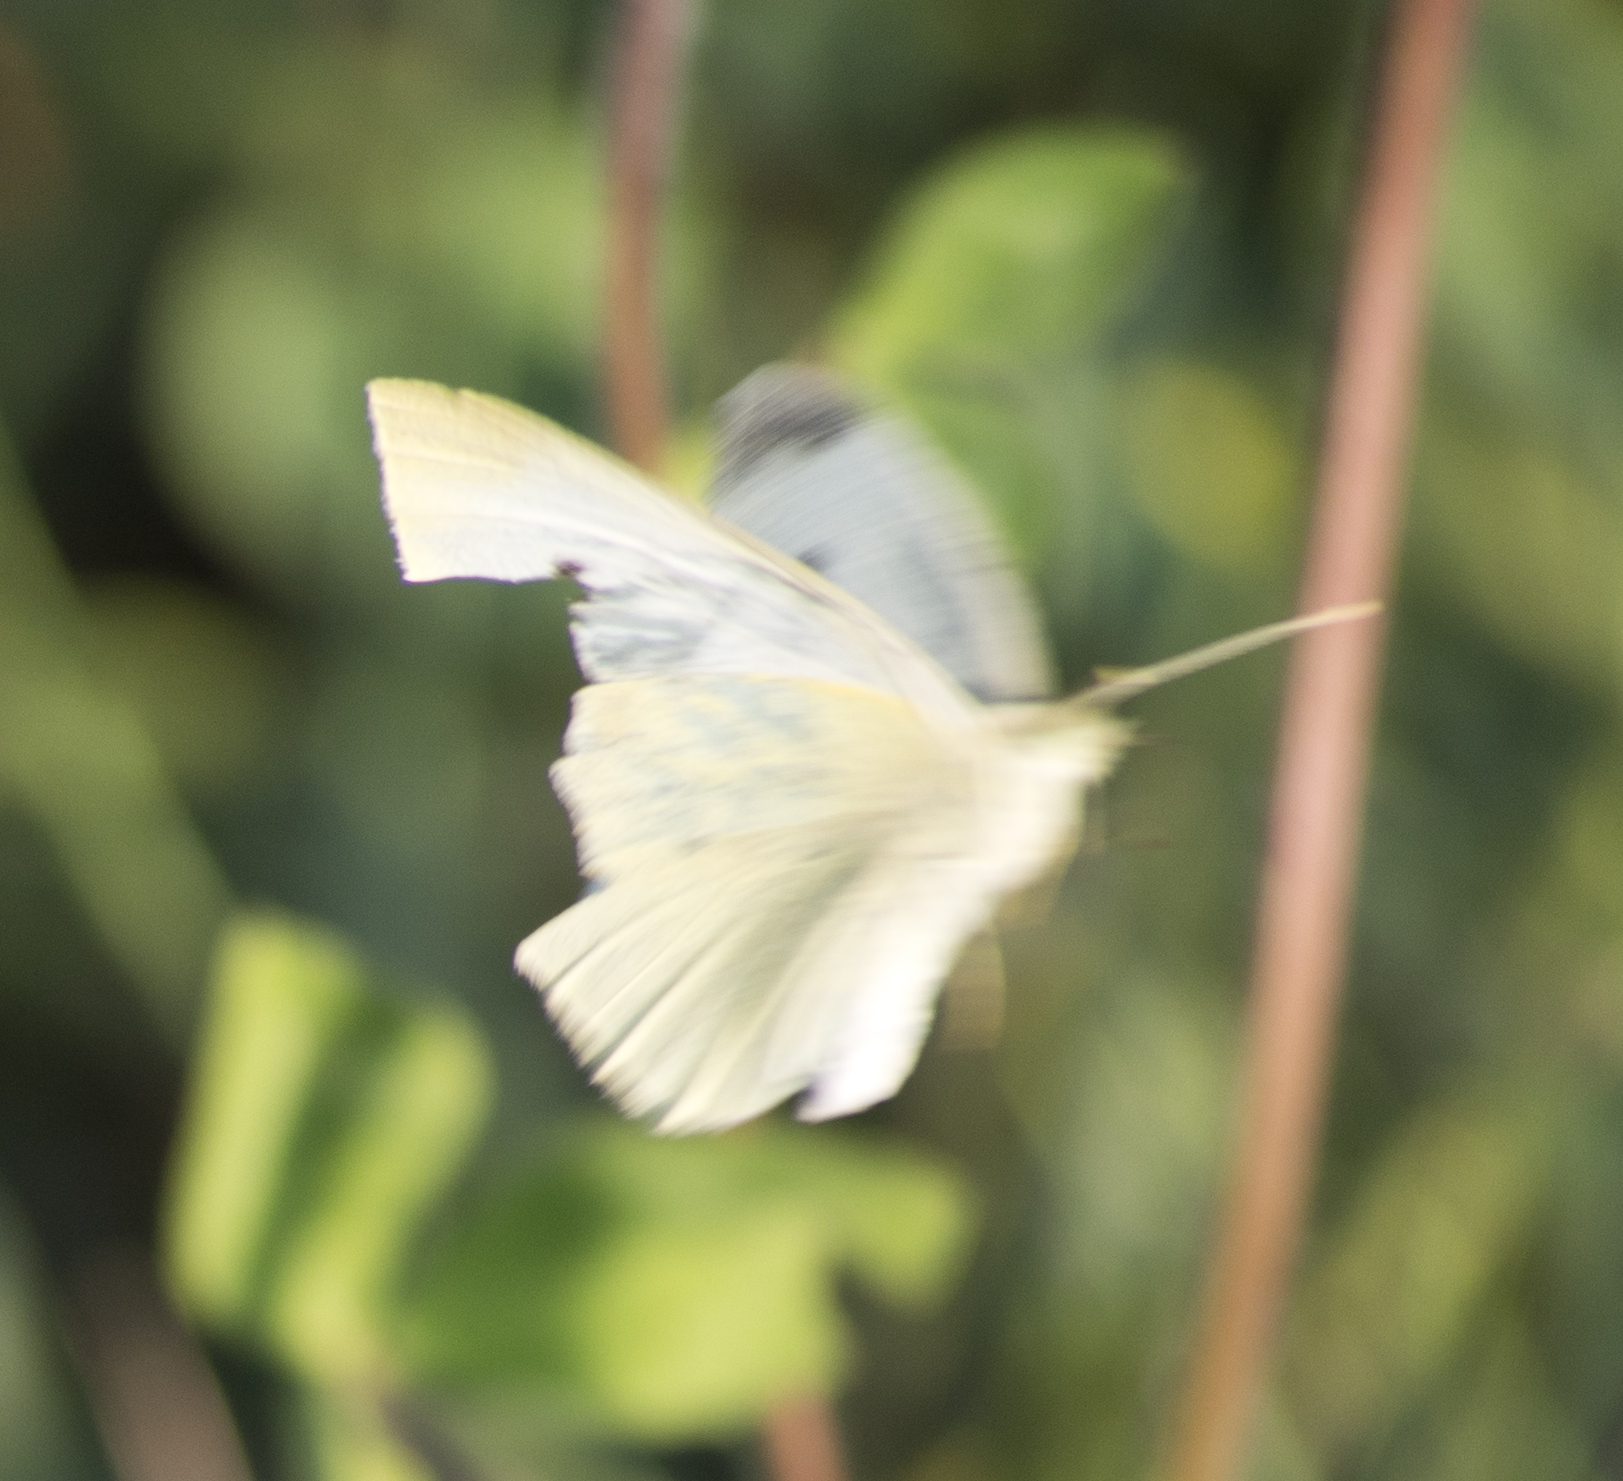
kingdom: Animalia
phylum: Arthropoda
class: Insecta
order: Lepidoptera
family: Pieridae
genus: Pieris
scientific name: Pieris rapae
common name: Small white
